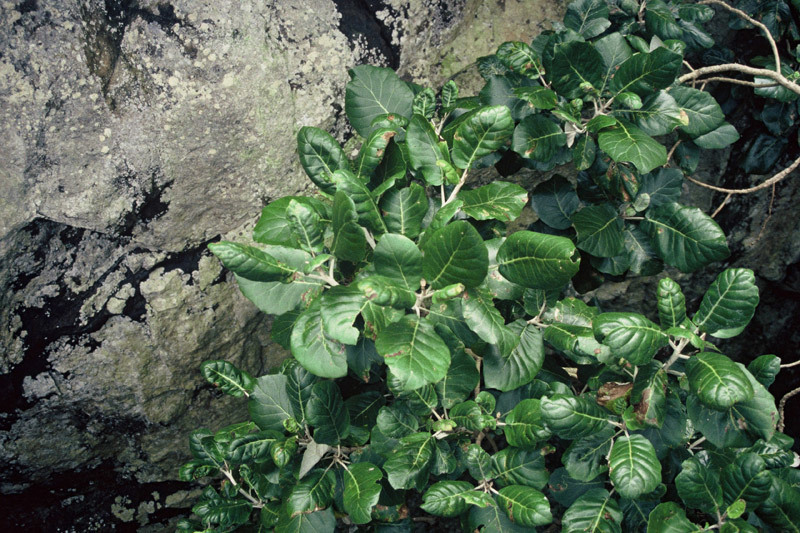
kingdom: Plantae
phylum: Tracheophyta
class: Magnoliopsida
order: Asterales
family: Asteraceae
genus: Brachyglottis
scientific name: Brachyglottis arborescens
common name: Three kings rangiora
